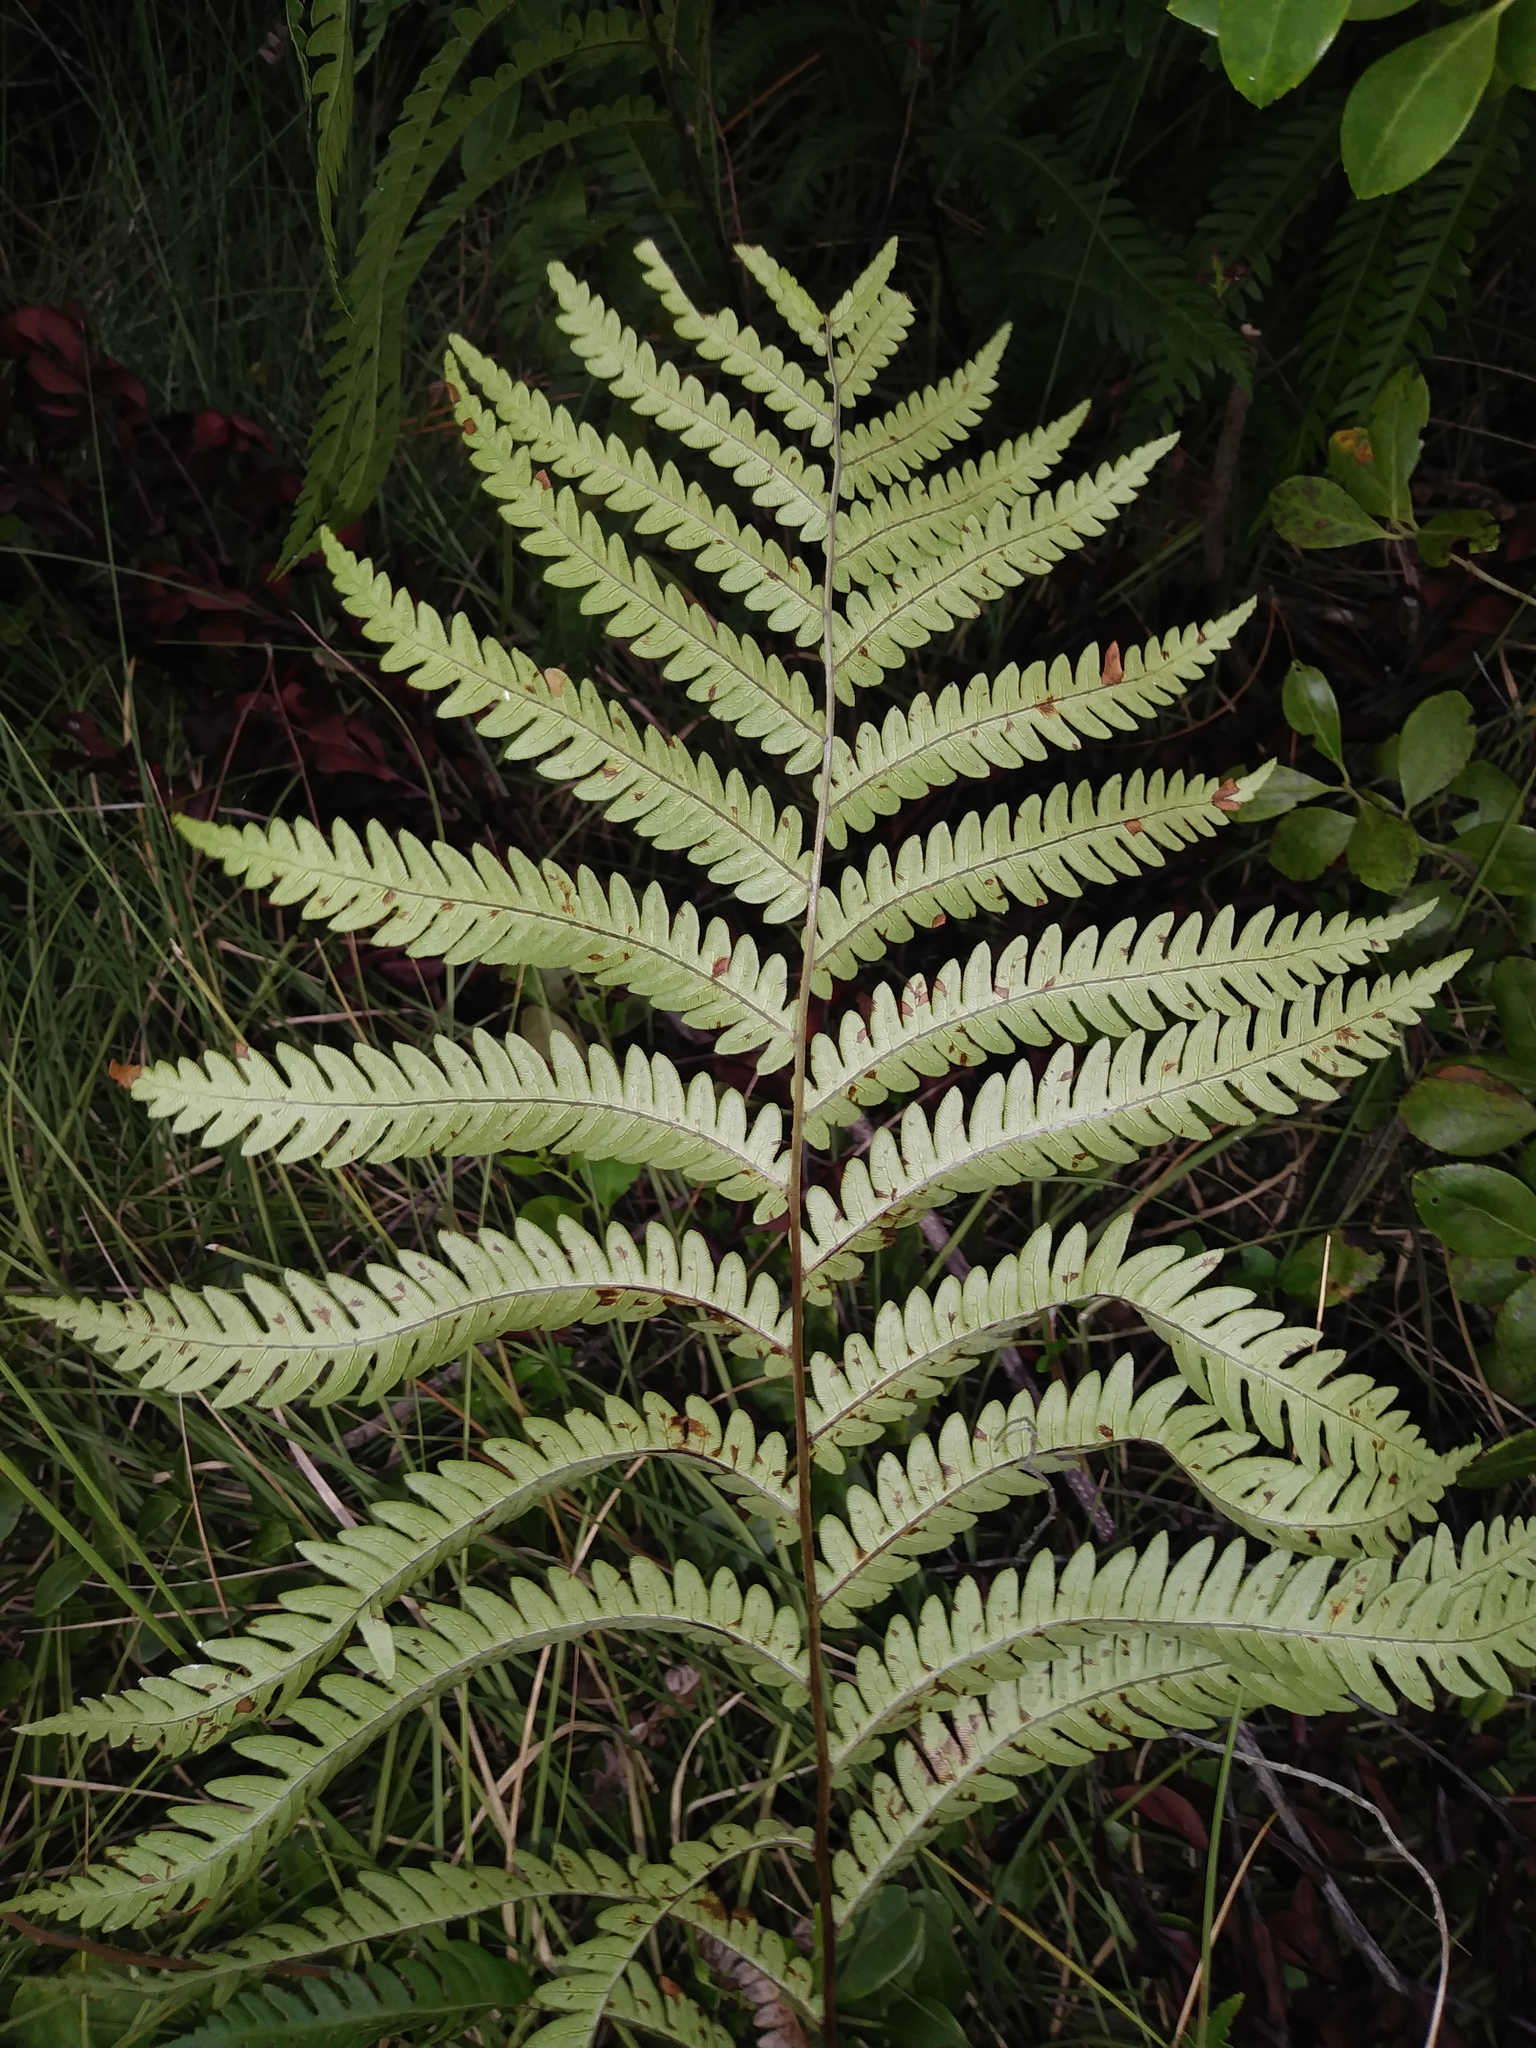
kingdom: Plantae
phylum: Tracheophyta
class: Polypodiopsida
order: Polypodiales
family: Blechnaceae
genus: Anchistea
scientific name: Anchistea virginica
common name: Virginia chain fern
